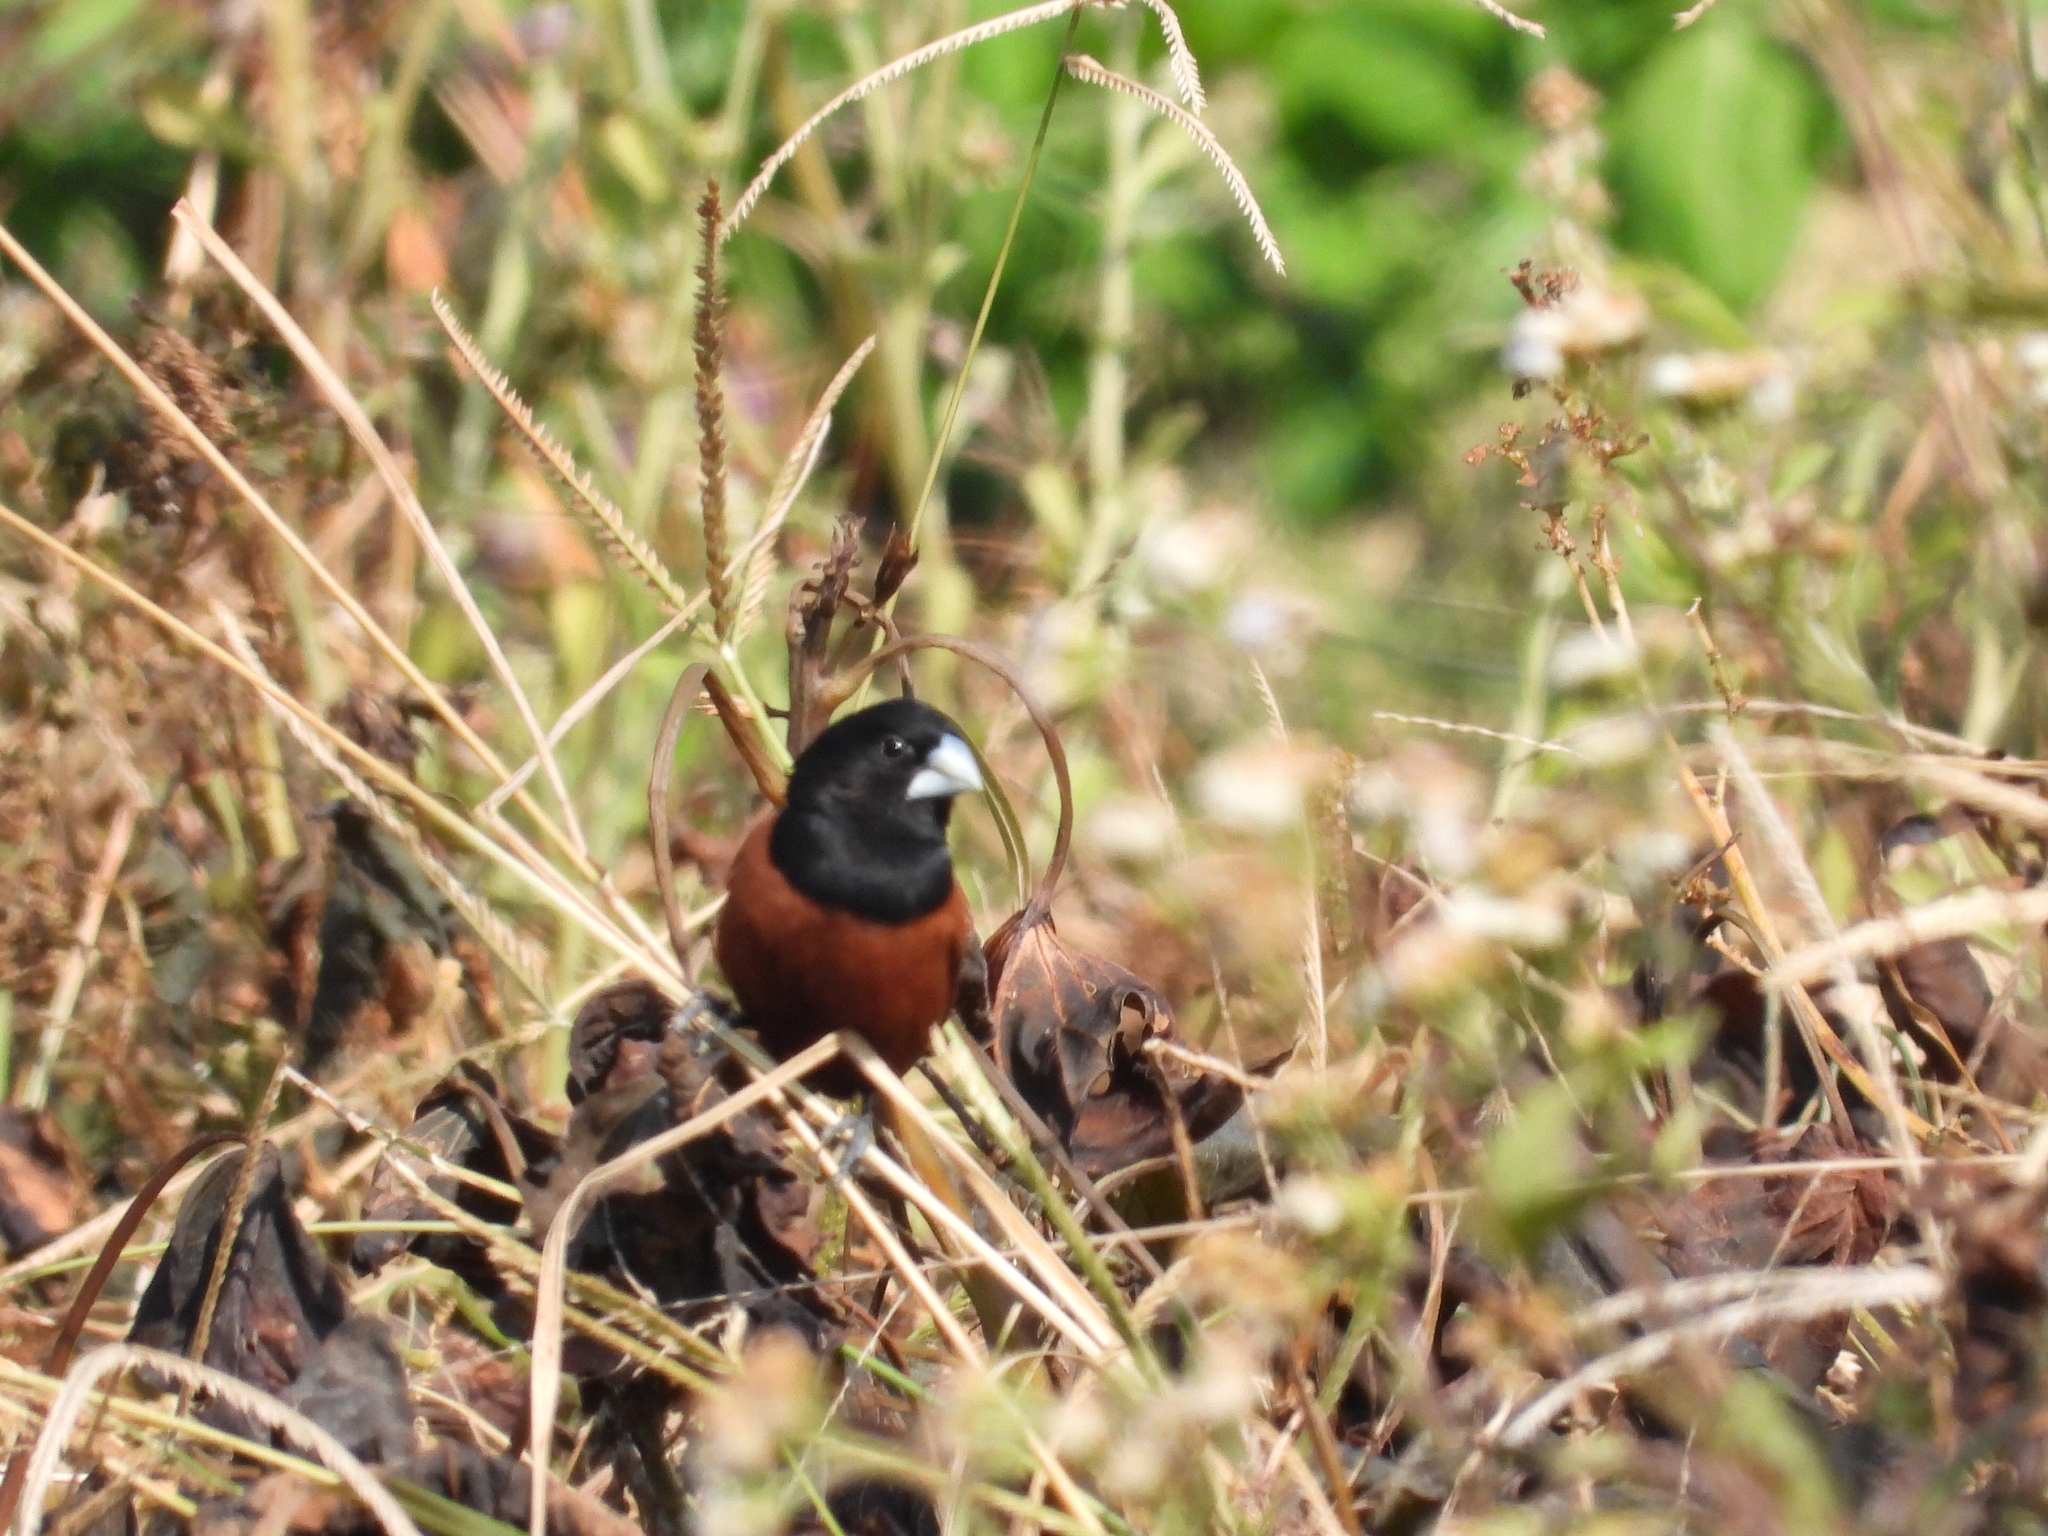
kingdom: Animalia
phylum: Chordata
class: Aves
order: Passeriformes
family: Estrildidae
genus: Lonchura
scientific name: Lonchura atricapilla
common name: Chestnut munia
